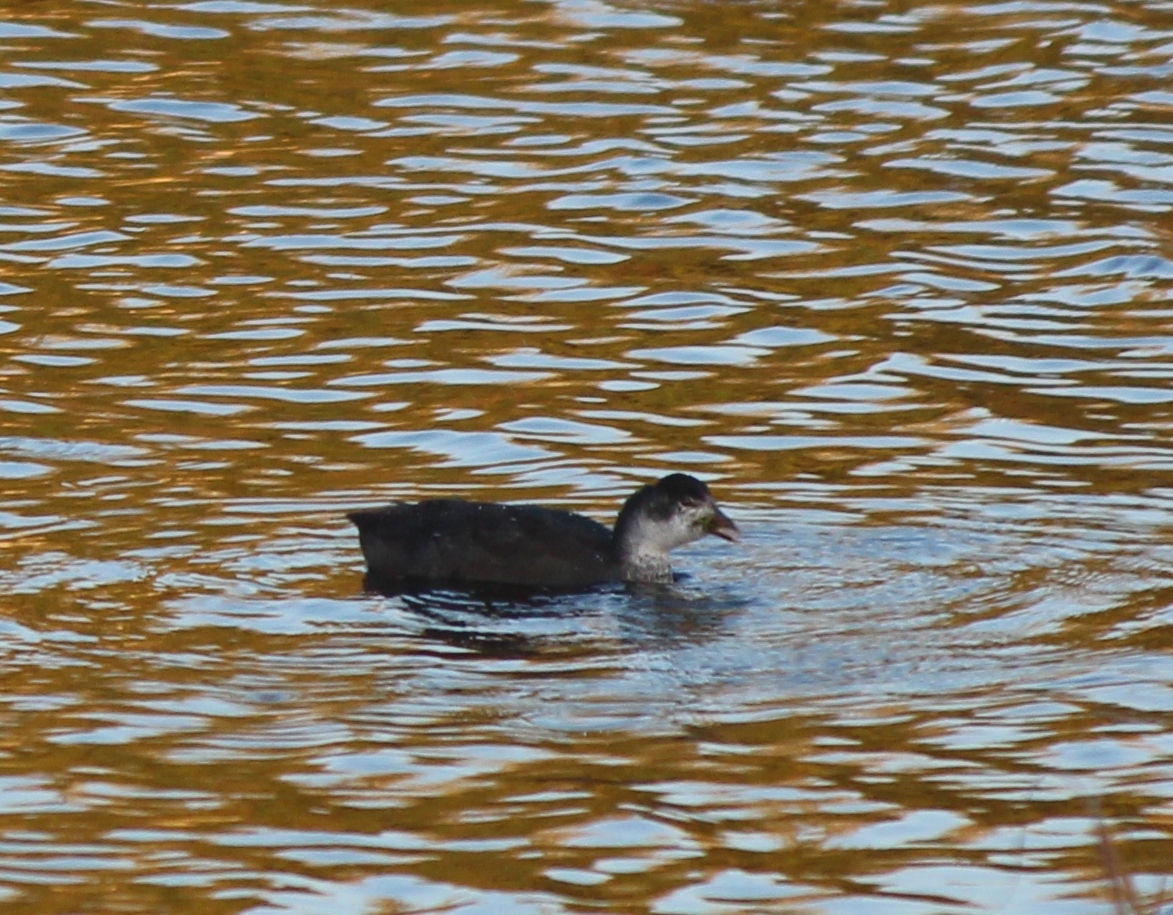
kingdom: Animalia
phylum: Chordata
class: Aves
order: Gruiformes
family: Rallidae
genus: Fulica
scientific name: Fulica atra
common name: Eurasian coot
